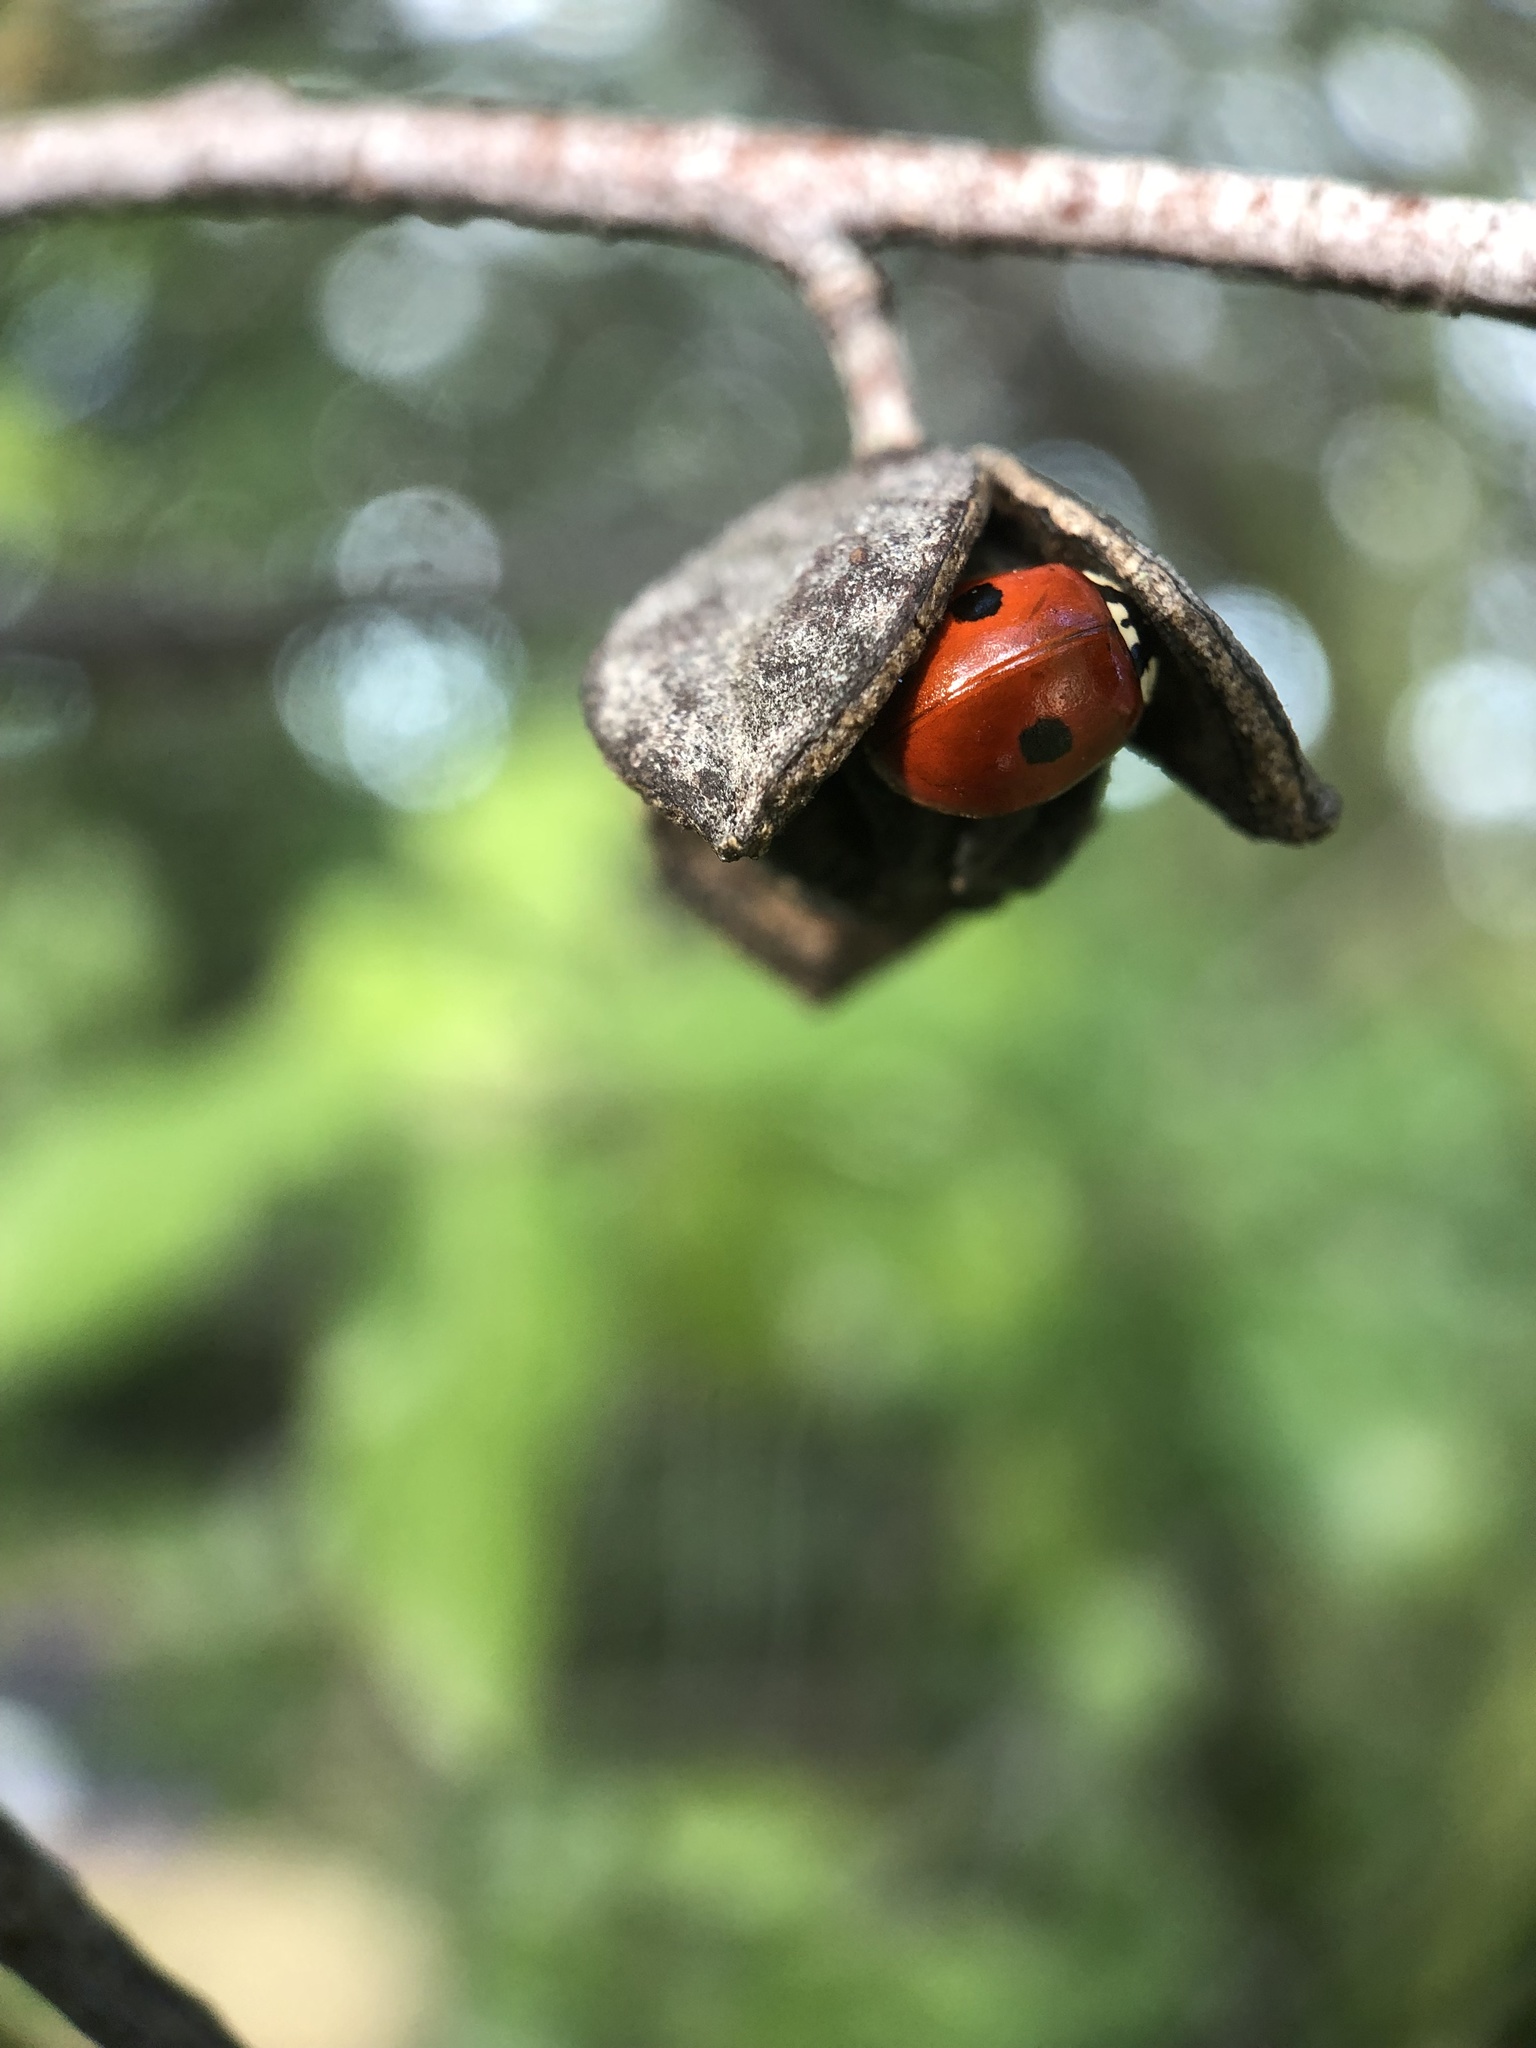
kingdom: Animalia
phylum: Arthropoda
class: Insecta
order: Coleoptera
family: Coccinellidae
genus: Adalia
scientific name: Adalia bipunctata
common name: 2-spot ladybird
